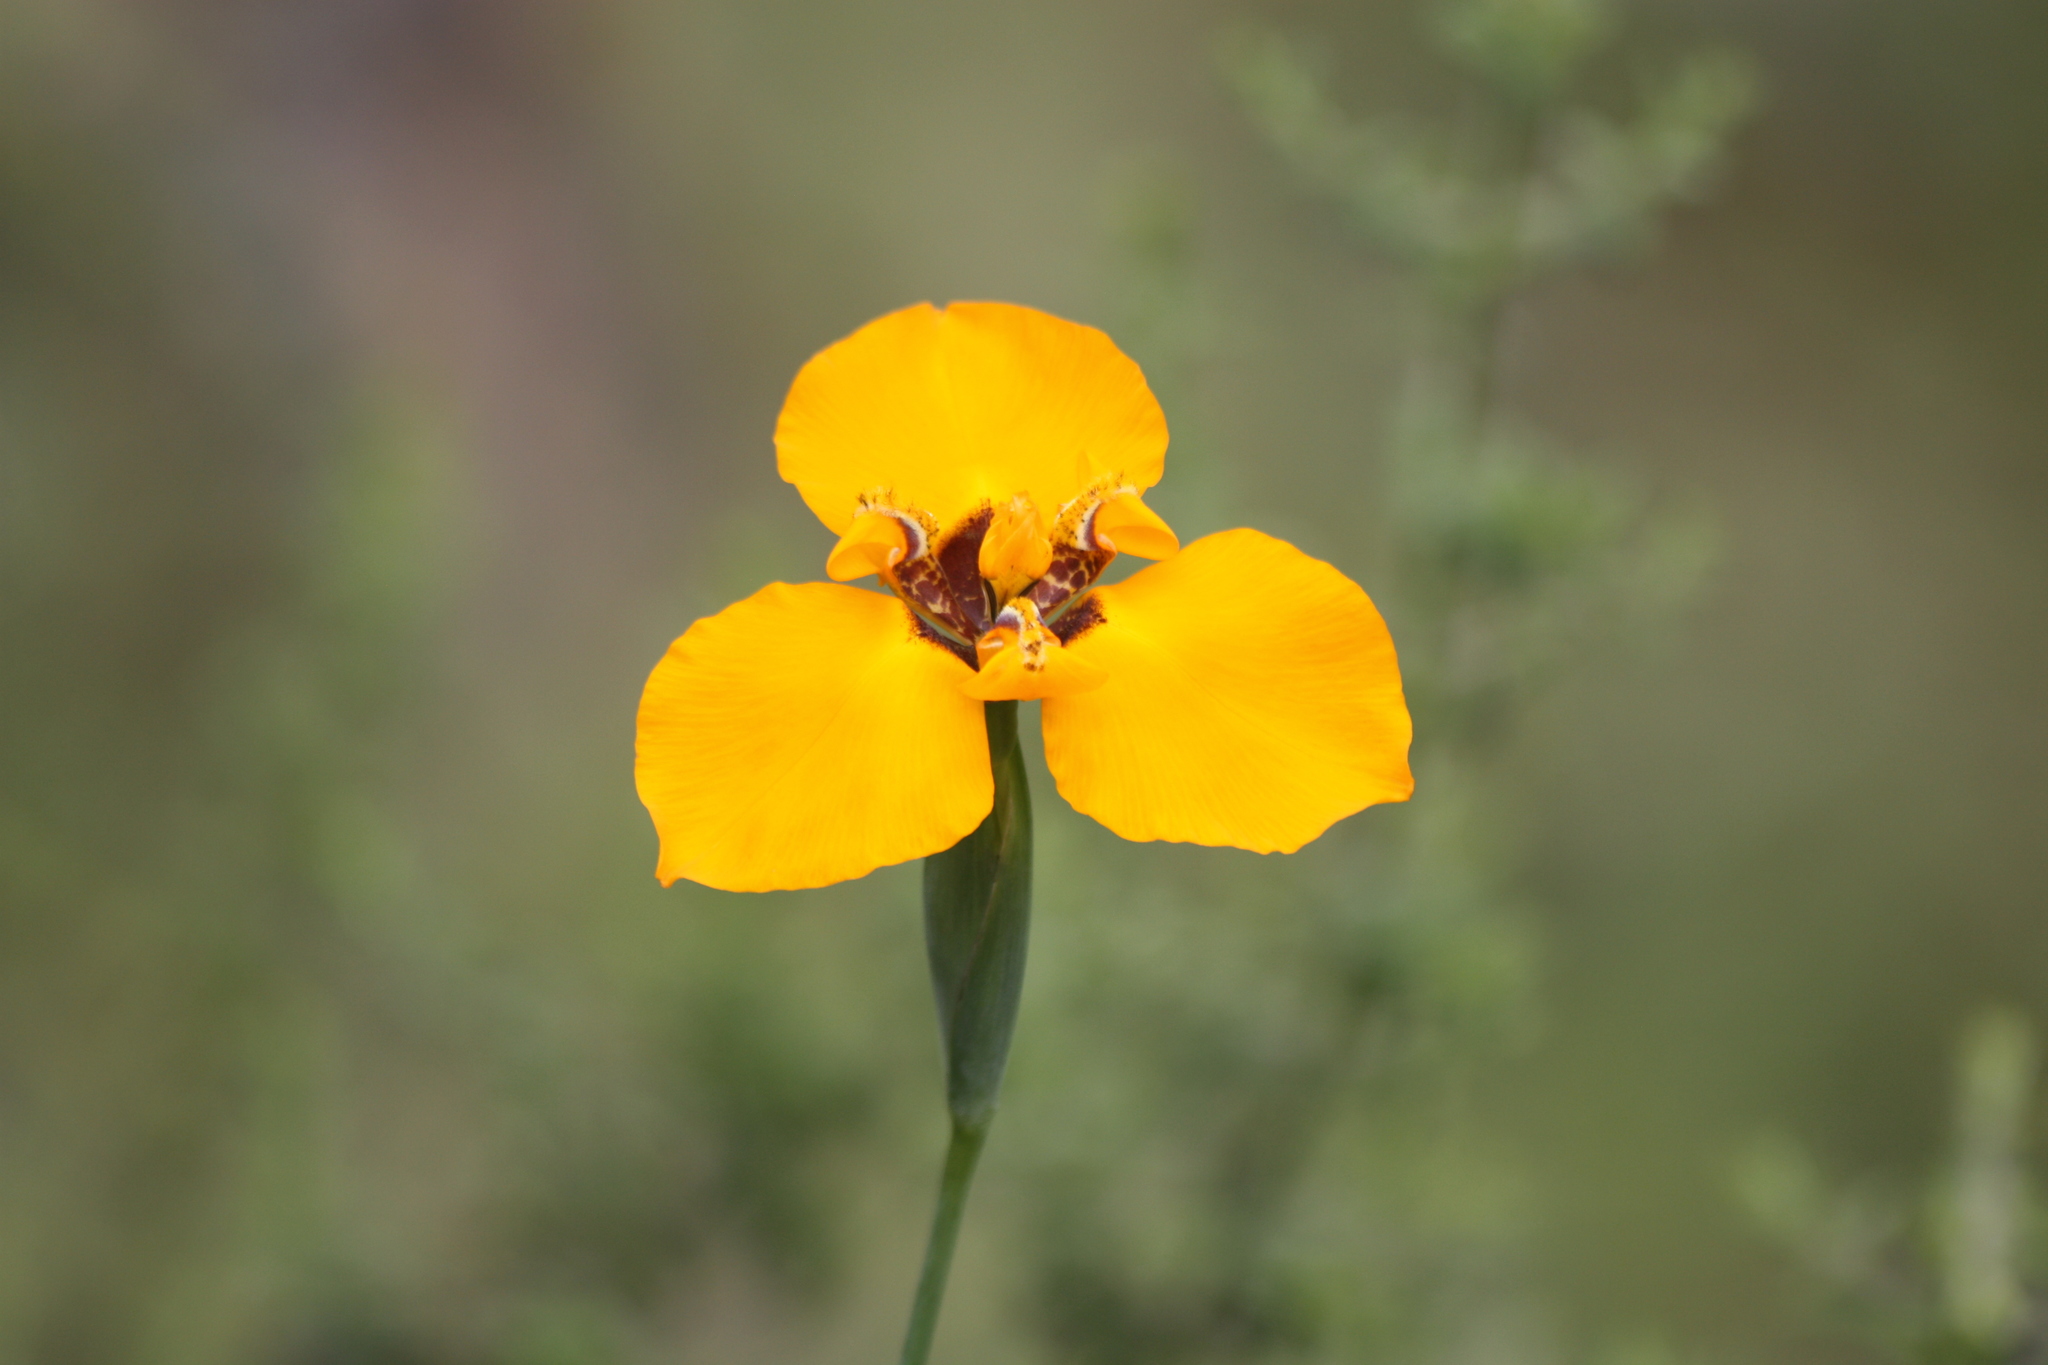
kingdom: Plantae
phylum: Tracheophyta
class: Liliopsida
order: Asparagales
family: Iridaceae
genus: Hesperoxiphion
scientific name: Hesperoxiphion peruvianum
